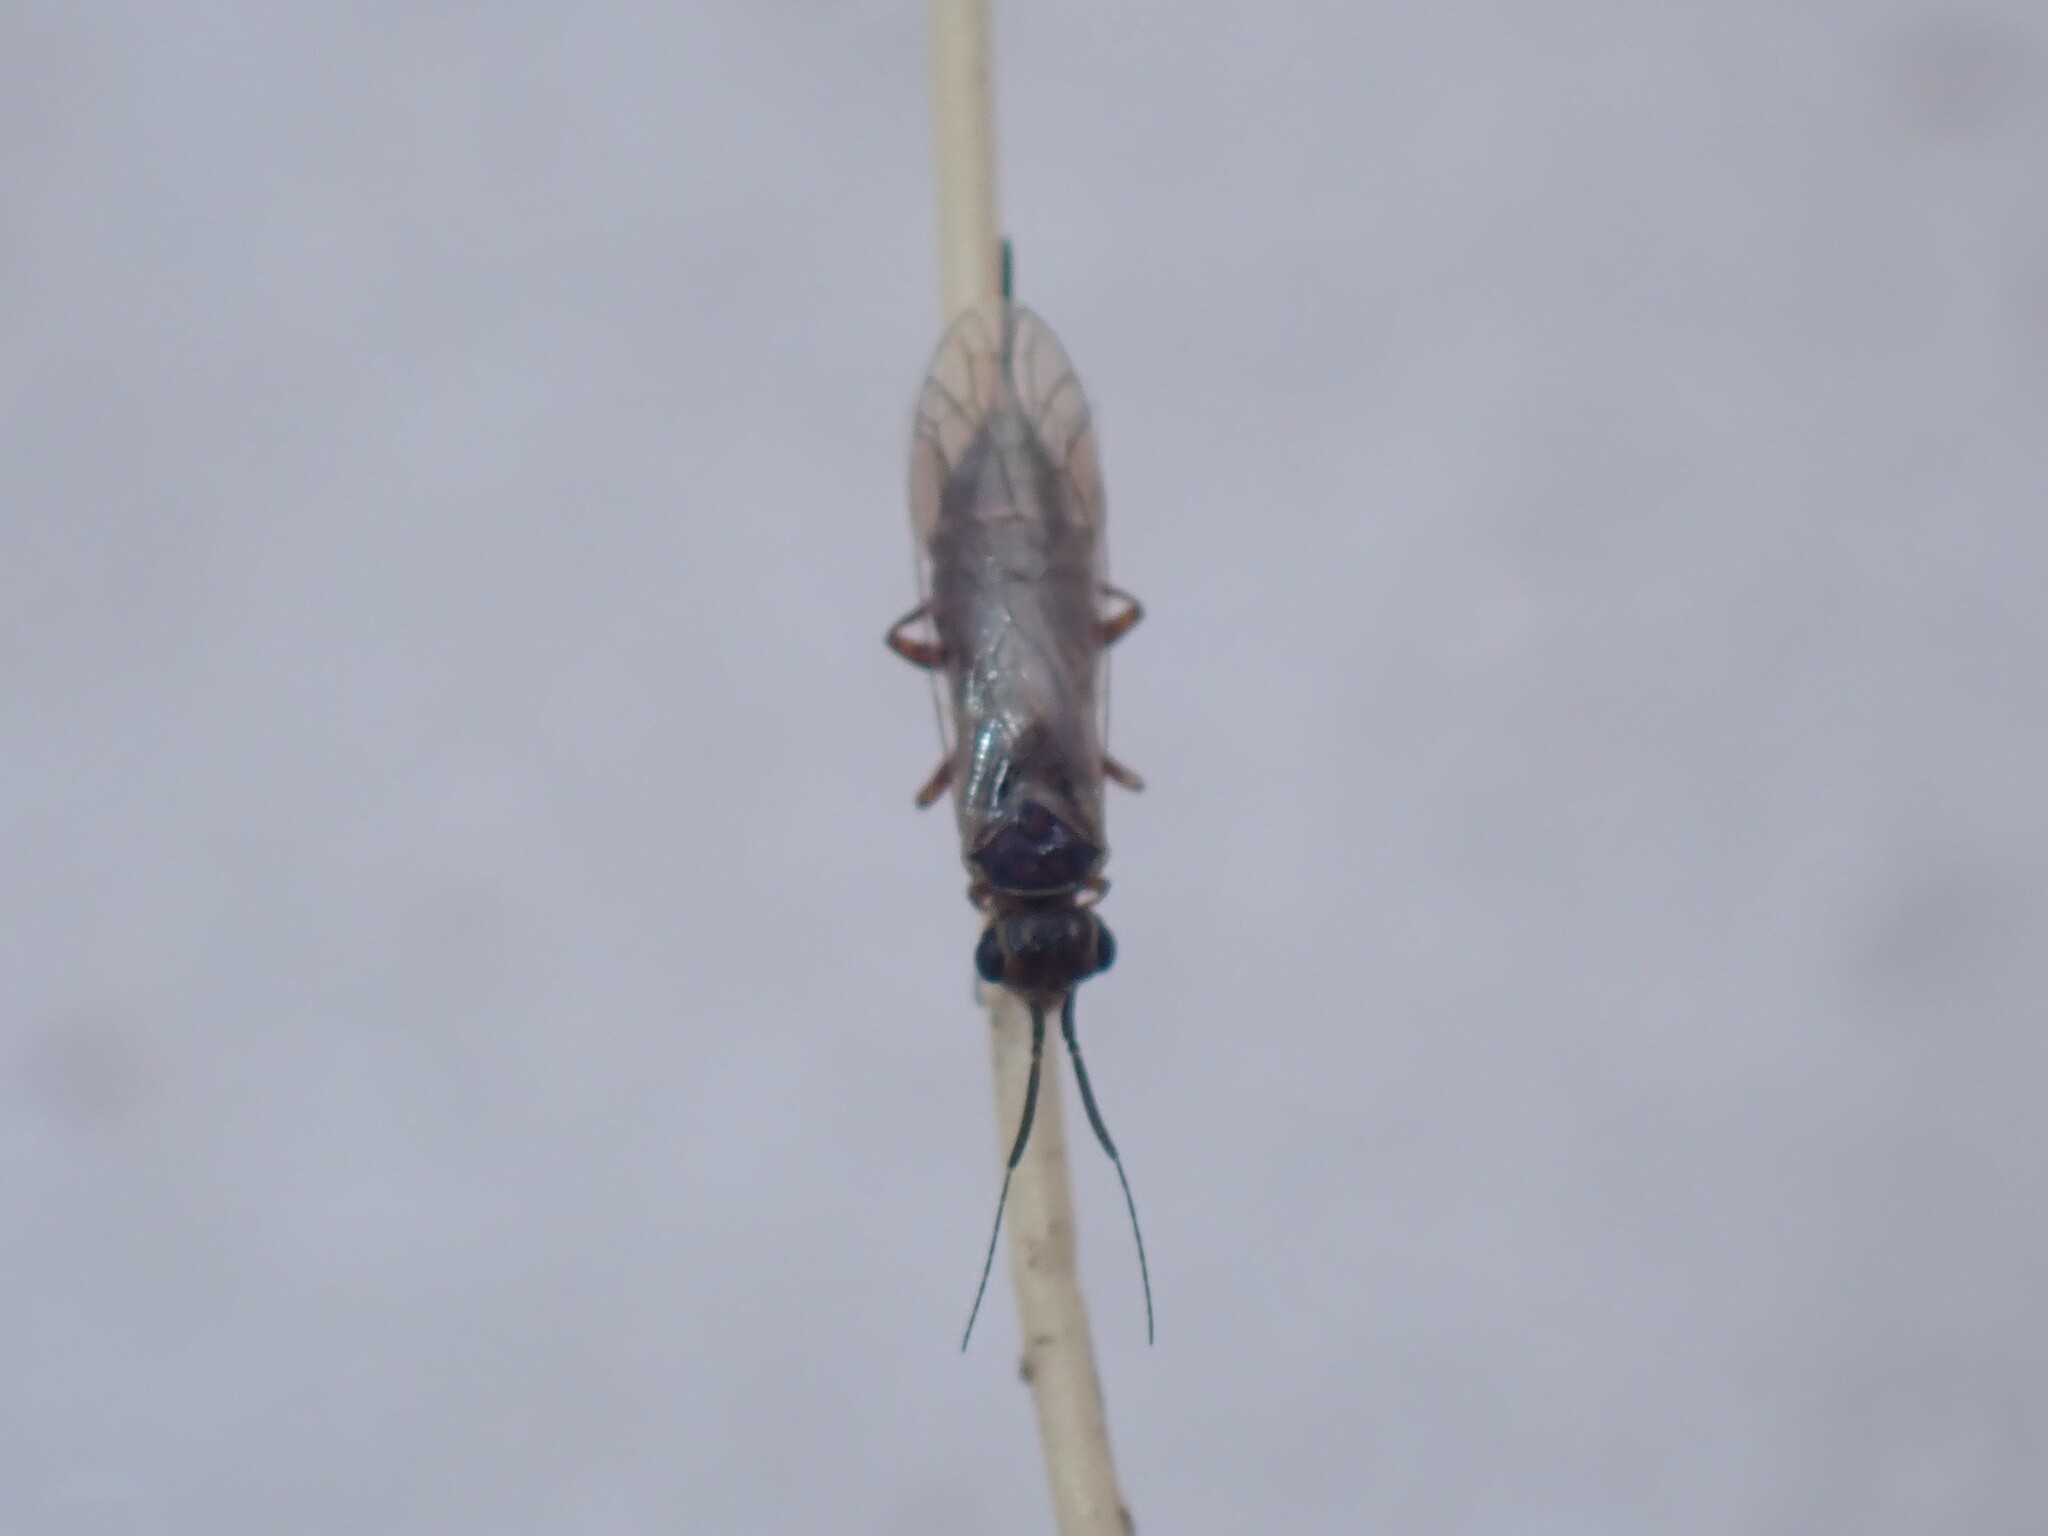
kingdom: Animalia
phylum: Arthropoda
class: Insecta
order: Hymenoptera
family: Xyelidae
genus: Xyela
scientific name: Xyela curva
